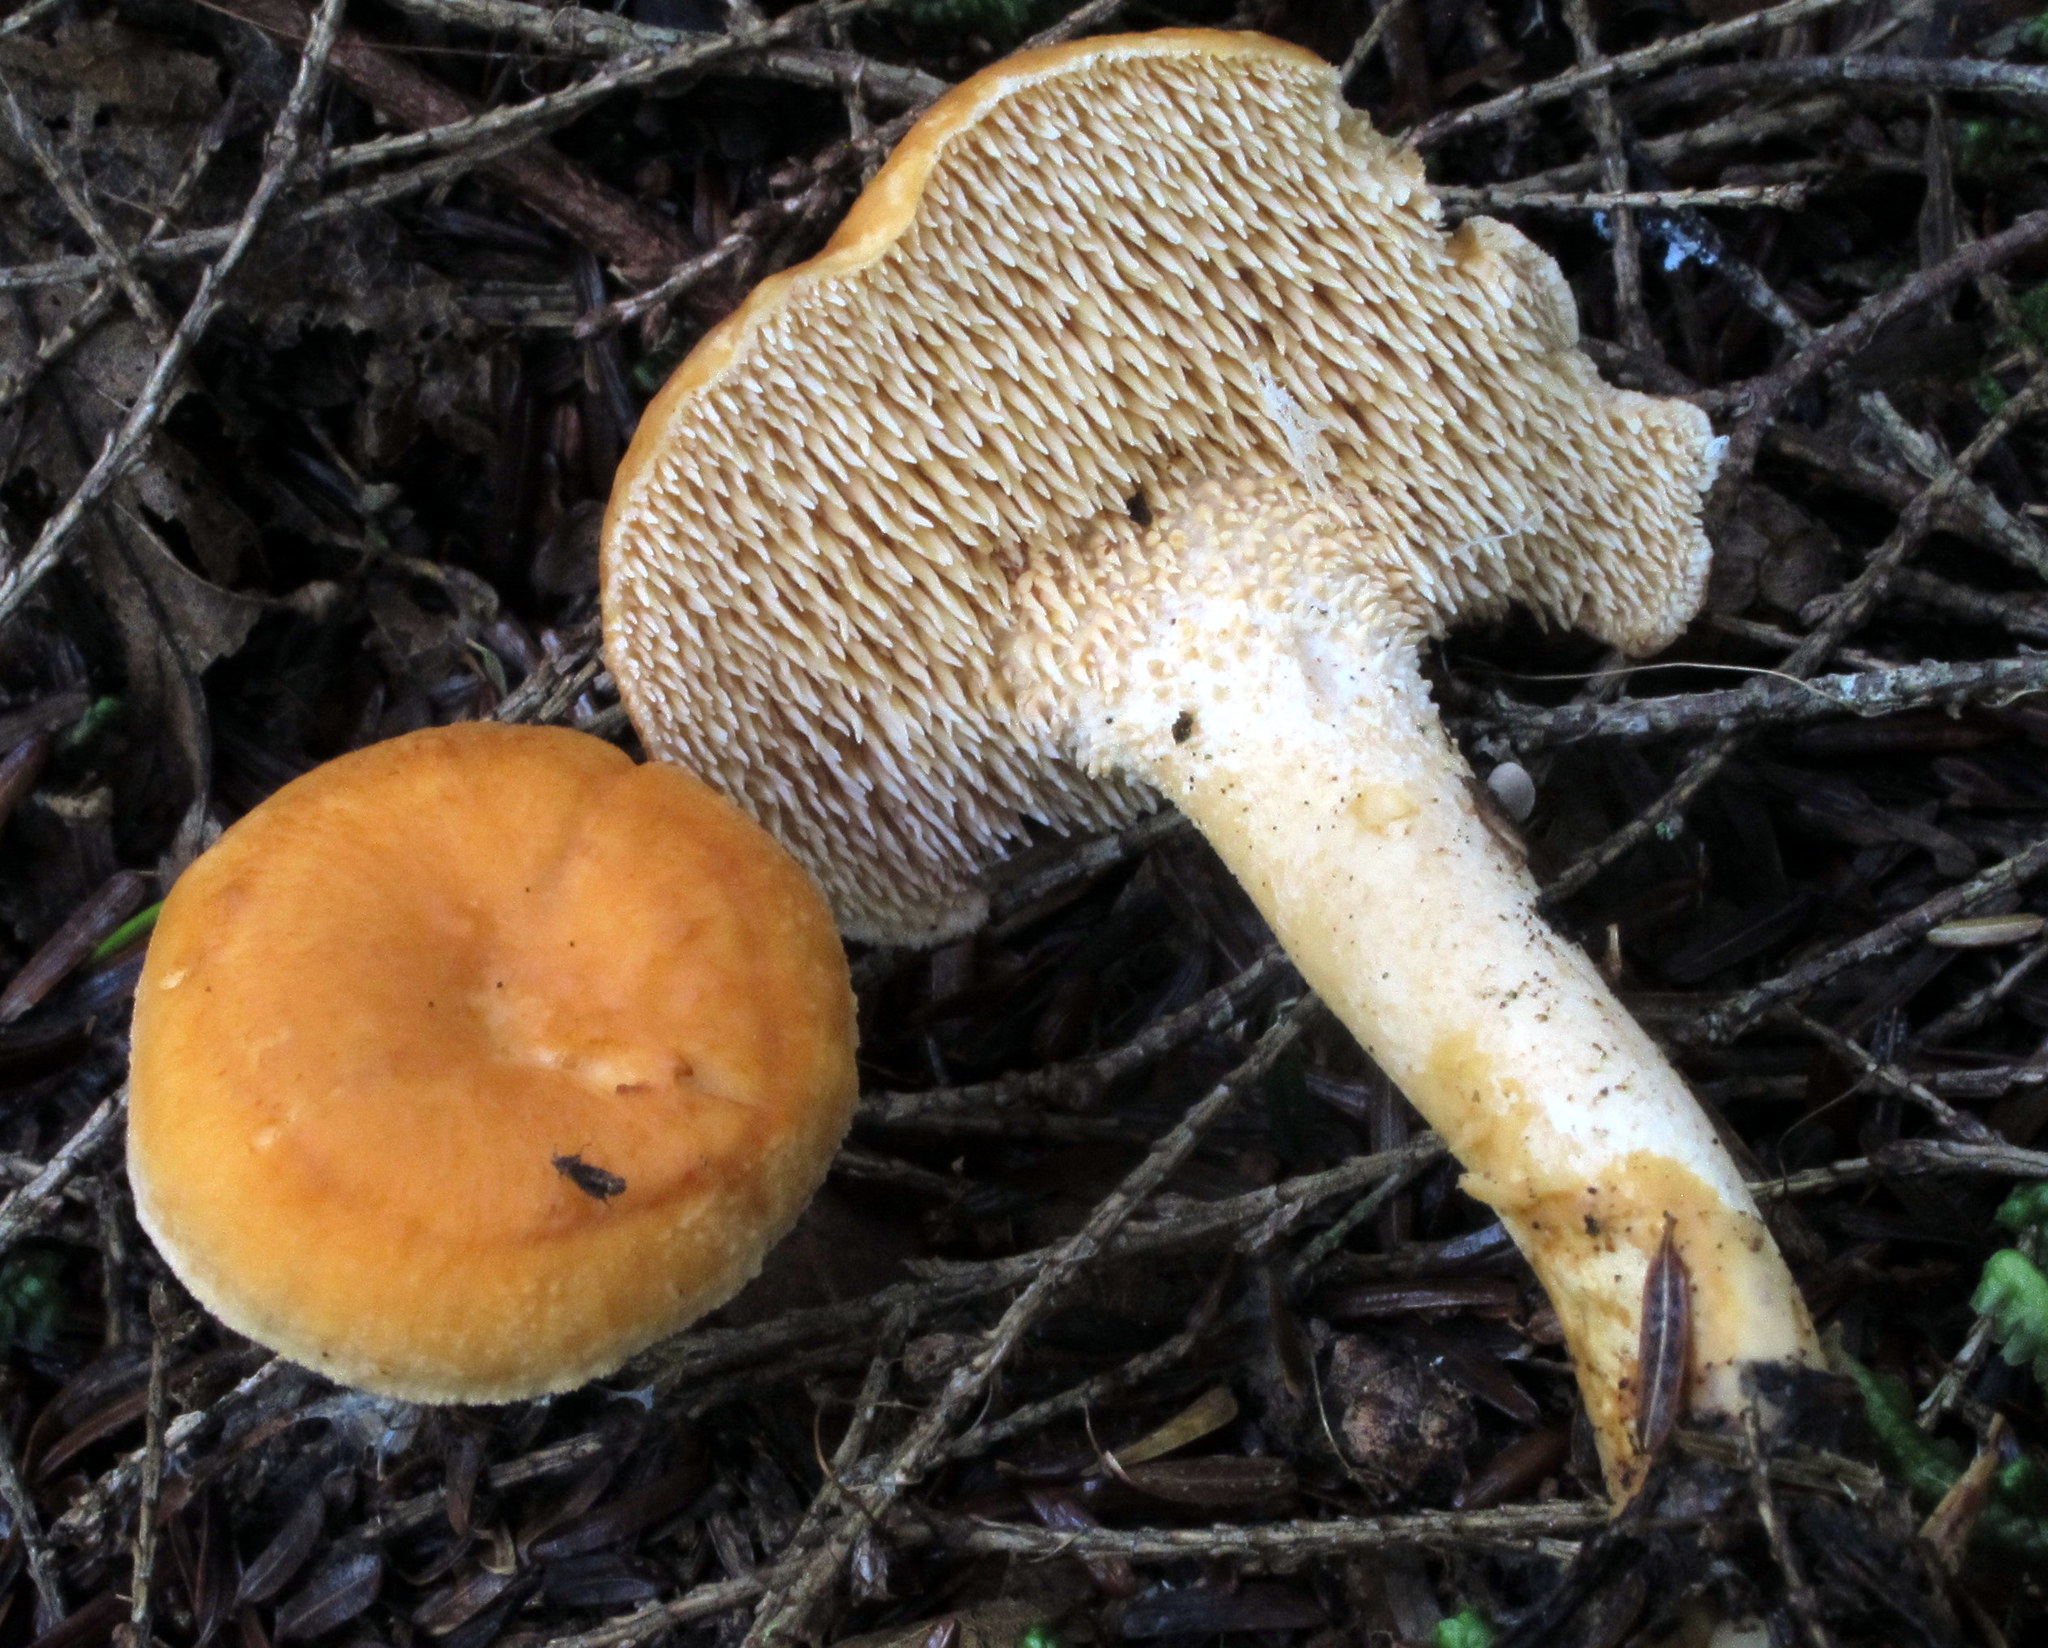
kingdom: Fungi
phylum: Basidiomycota
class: Agaricomycetes
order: Cantharellales
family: Hydnaceae
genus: Hydnum
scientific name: Hydnum umbilicatum
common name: Umbilicate hedgehog
